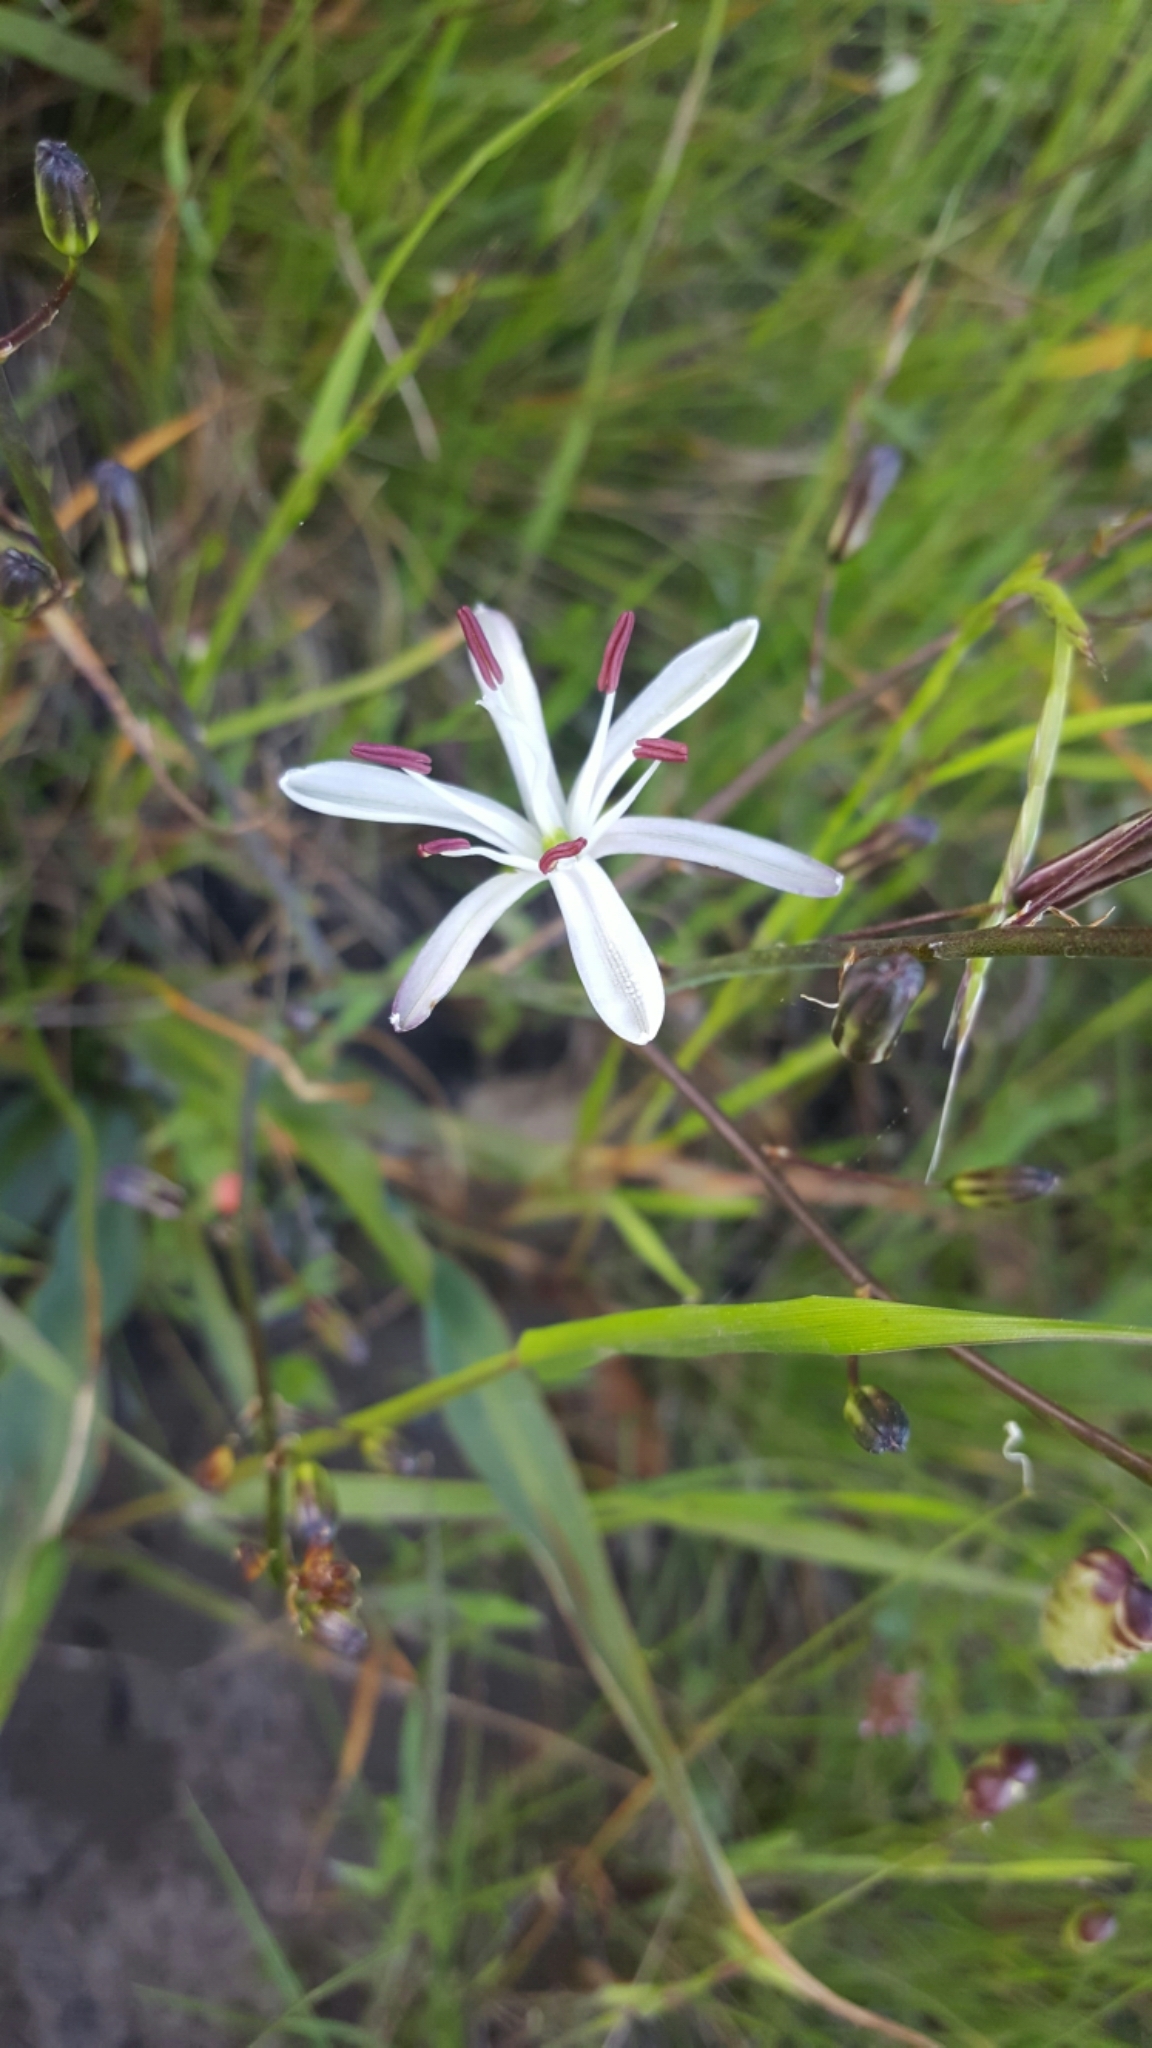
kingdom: Plantae
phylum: Tracheophyta
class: Liliopsida
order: Asparagales
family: Asparagaceae
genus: Chlorogalum
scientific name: Chlorogalum pomeridianum
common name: Amole
